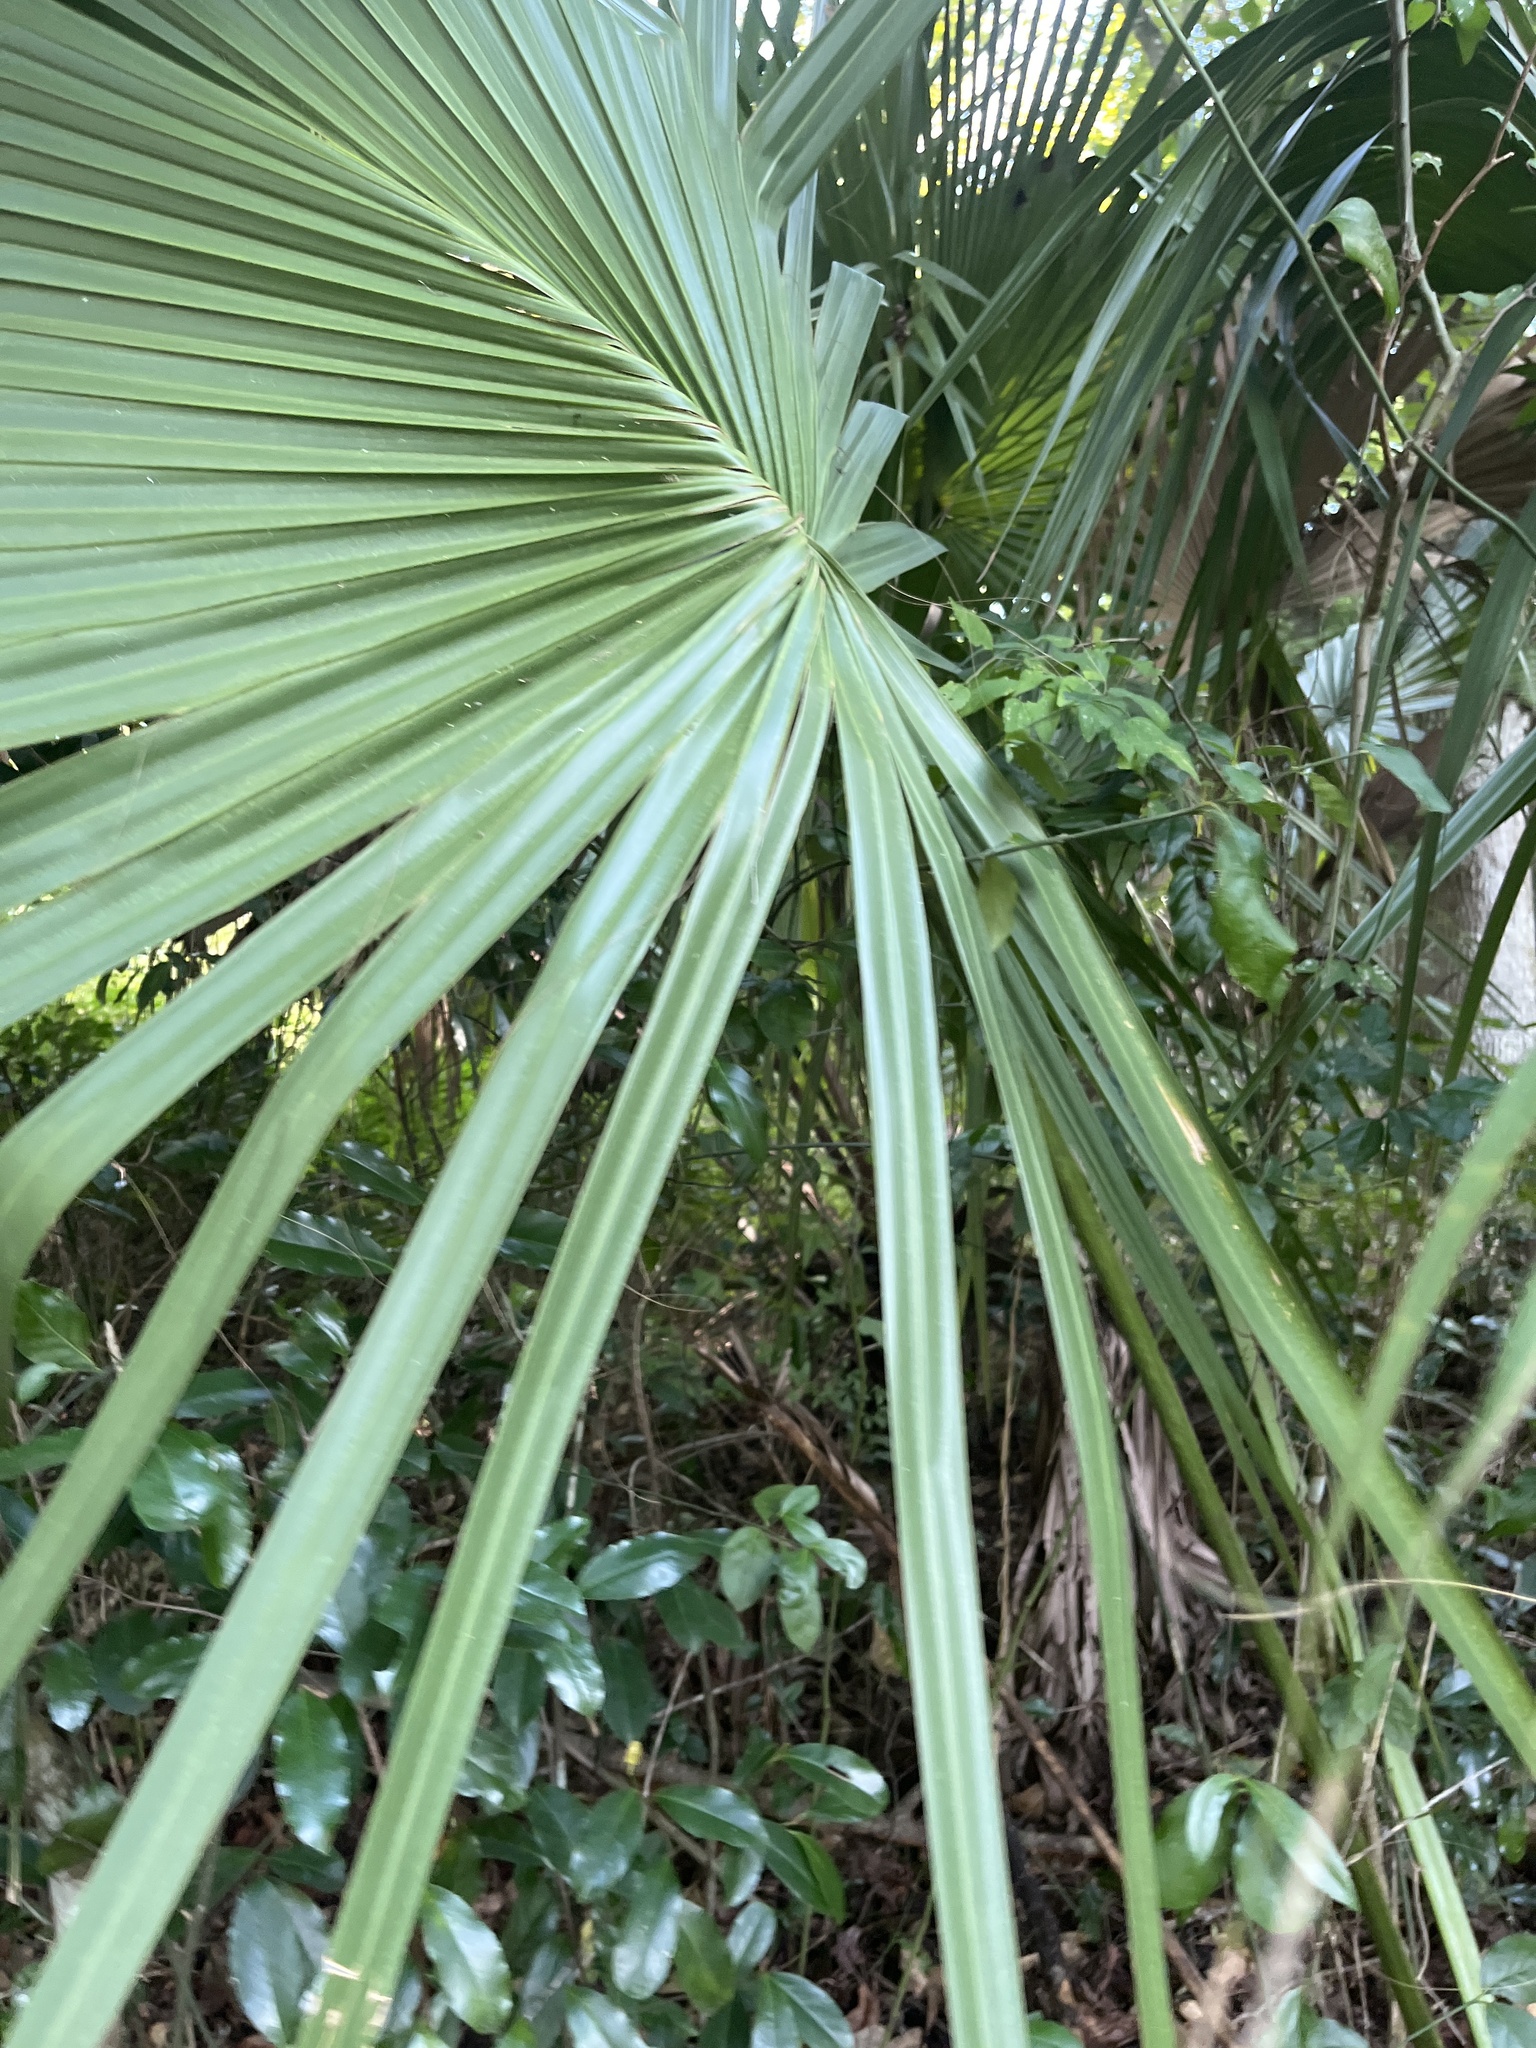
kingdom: Plantae
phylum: Tracheophyta
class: Liliopsida
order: Arecales
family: Arecaceae
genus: Sabal
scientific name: Sabal palmetto
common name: Blue palmetto
